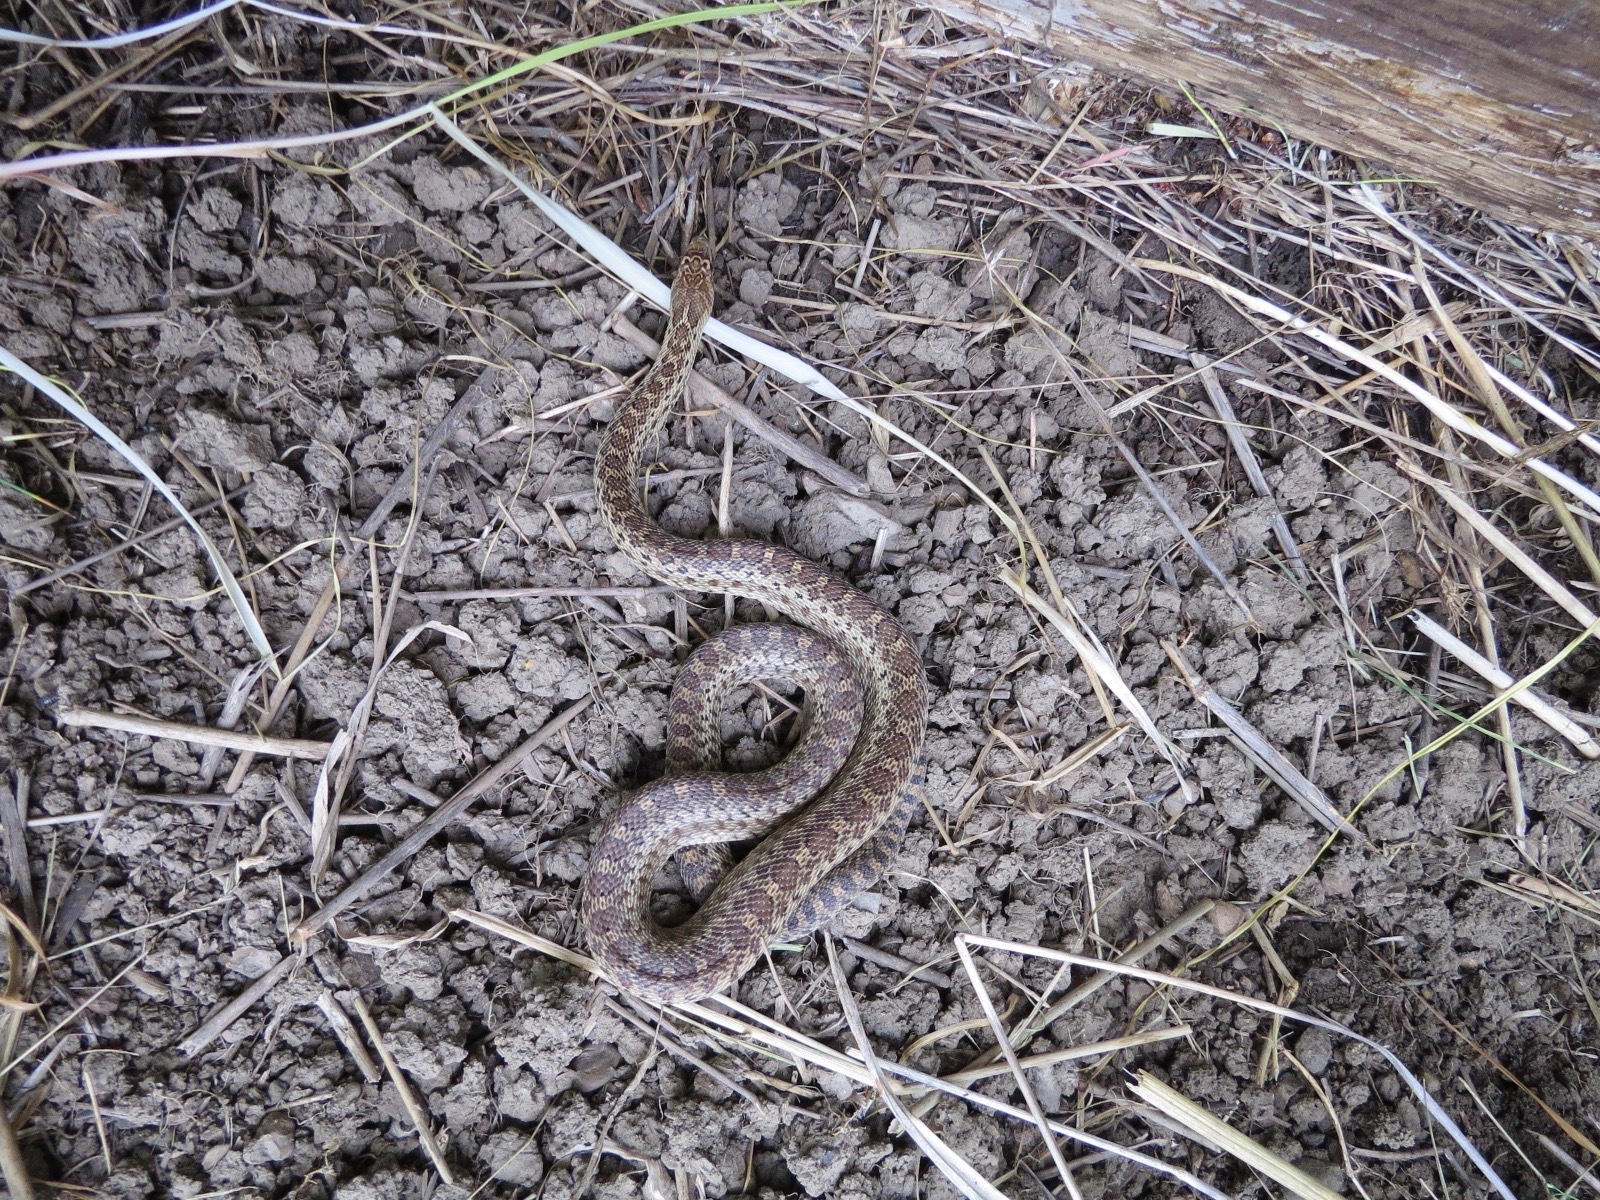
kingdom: Animalia
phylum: Chordata
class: Squamata
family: Colubridae
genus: Pituophis
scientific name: Pituophis catenifer
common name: Gopher snake
